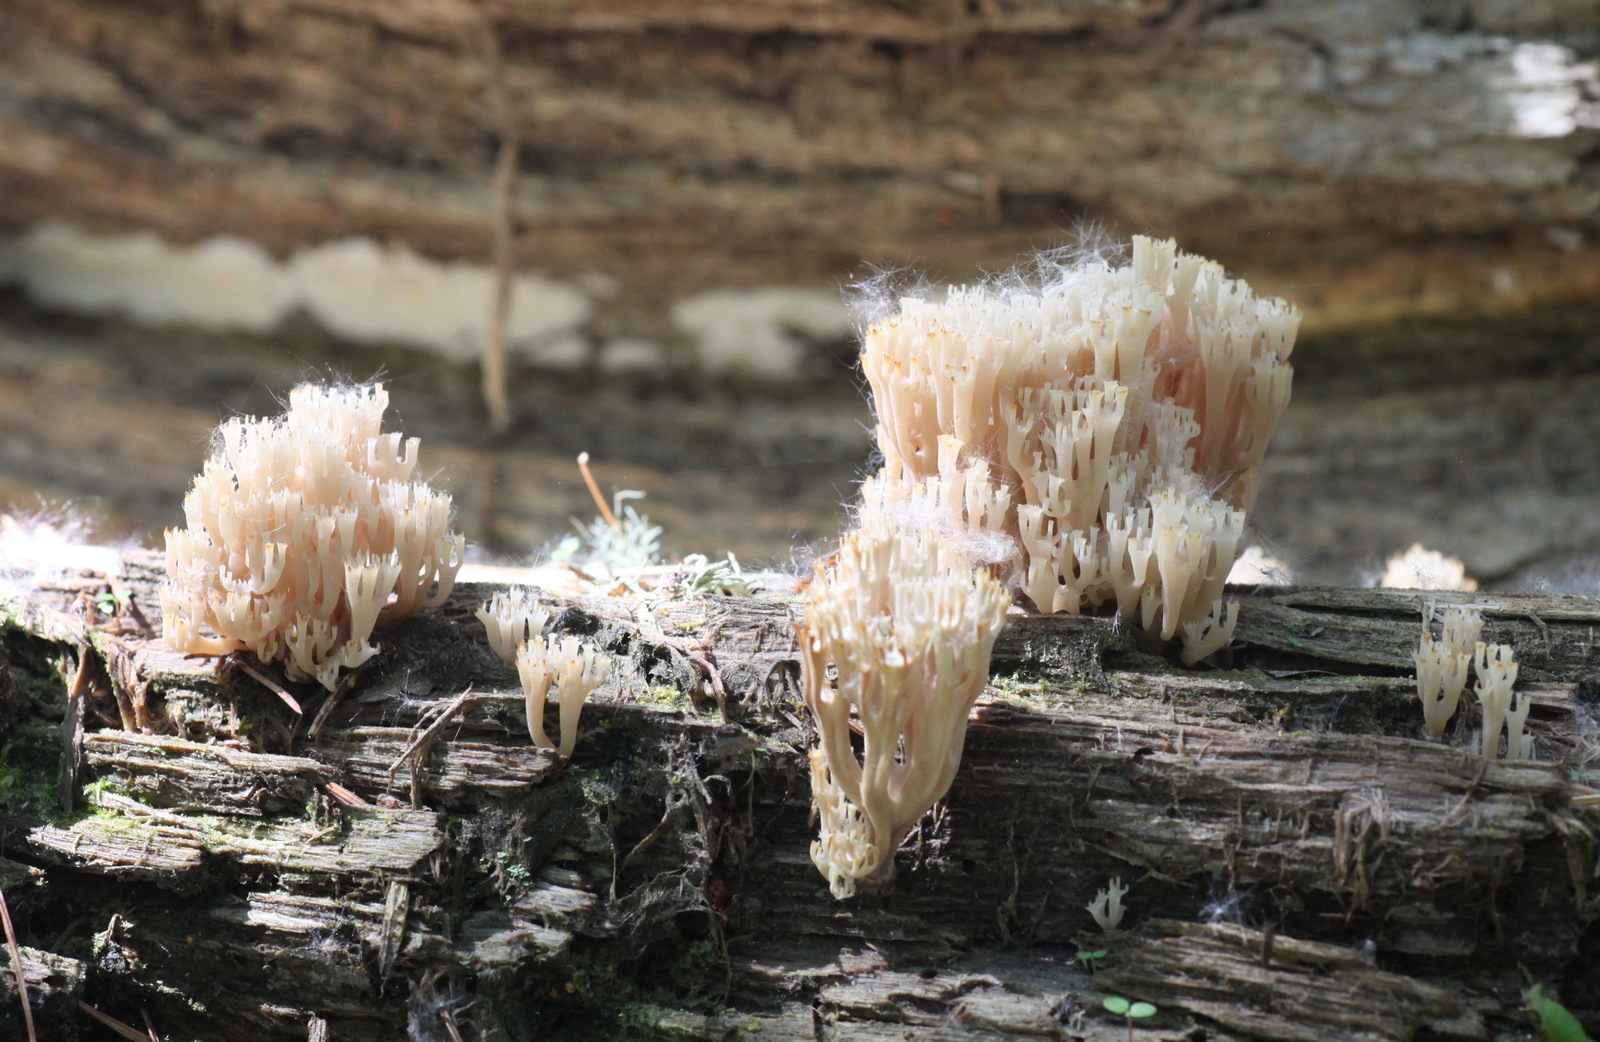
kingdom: Fungi
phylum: Basidiomycota
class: Agaricomycetes
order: Russulales
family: Auriscalpiaceae
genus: Artomyces
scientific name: Artomyces pyxidatus
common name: Crown-tipped coral fungus
